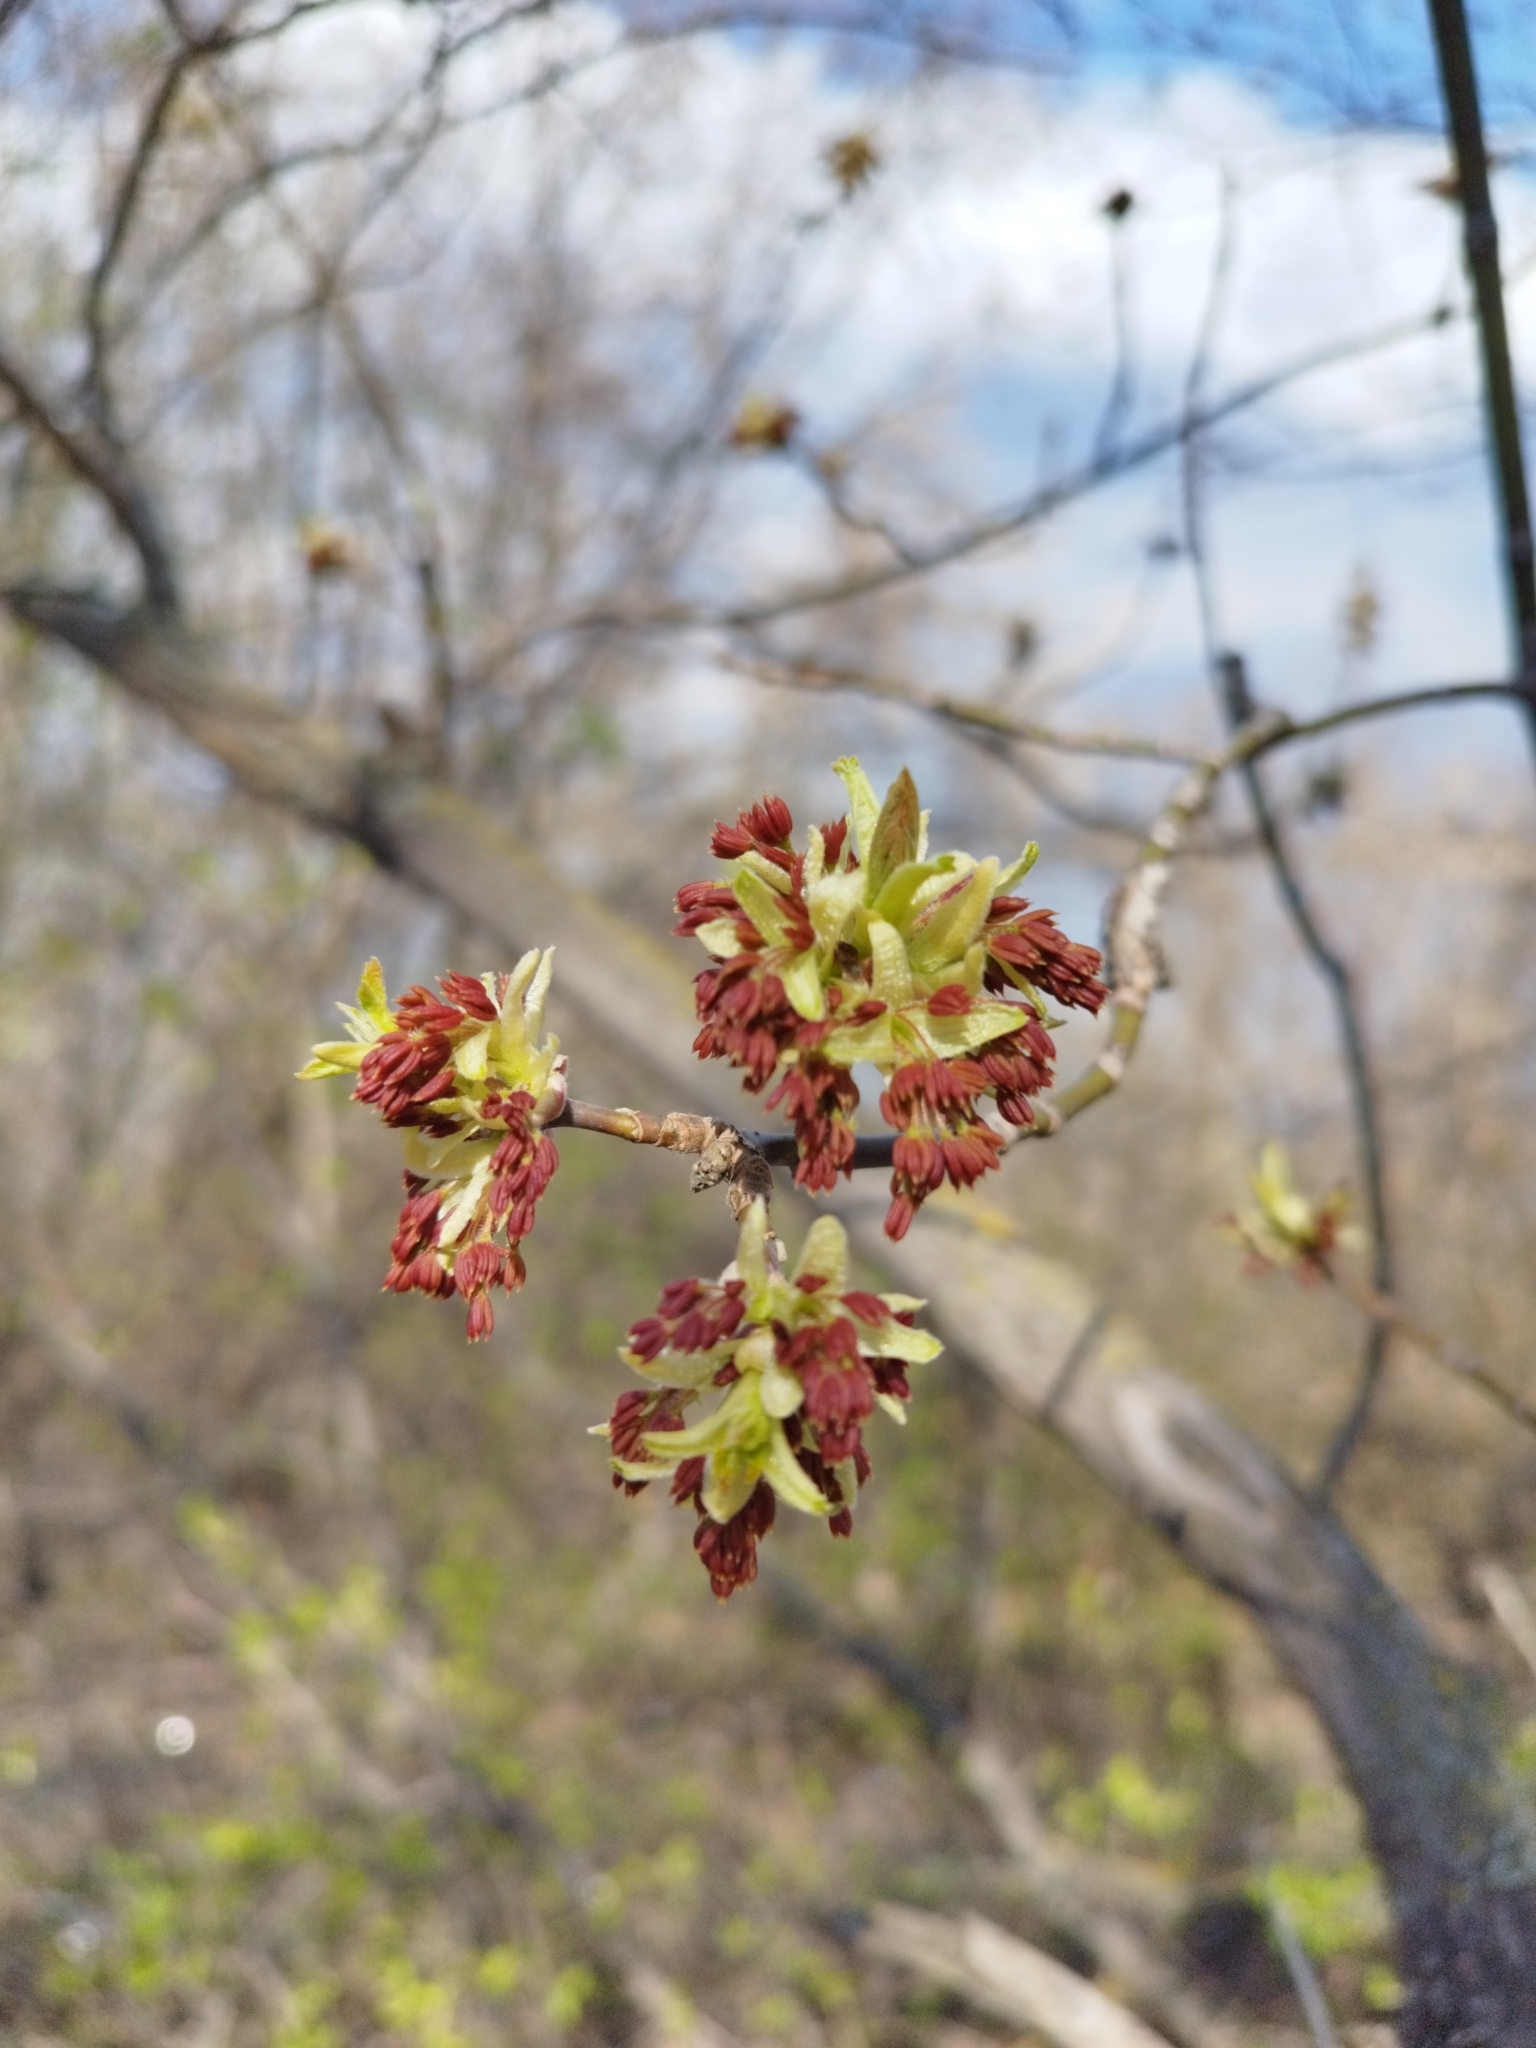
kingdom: Plantae
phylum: Tracheophyta
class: Magnoliopsida
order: Sapindales
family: Sapindaceae
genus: Acer
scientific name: Acer negundo
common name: Ashleaf maple
